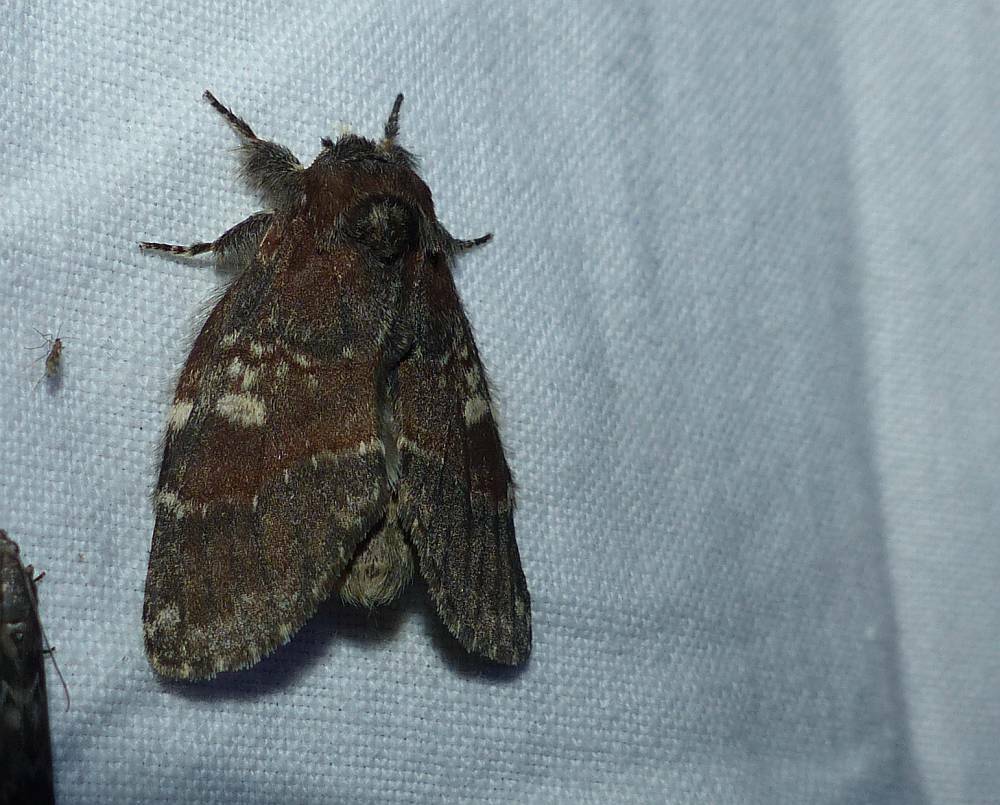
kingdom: Animalia
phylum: Arthropoda
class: Insecta
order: Lepidoptera
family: Notodontidae
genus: Peridea
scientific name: Peridea ferruginea
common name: Chocolate prominent
